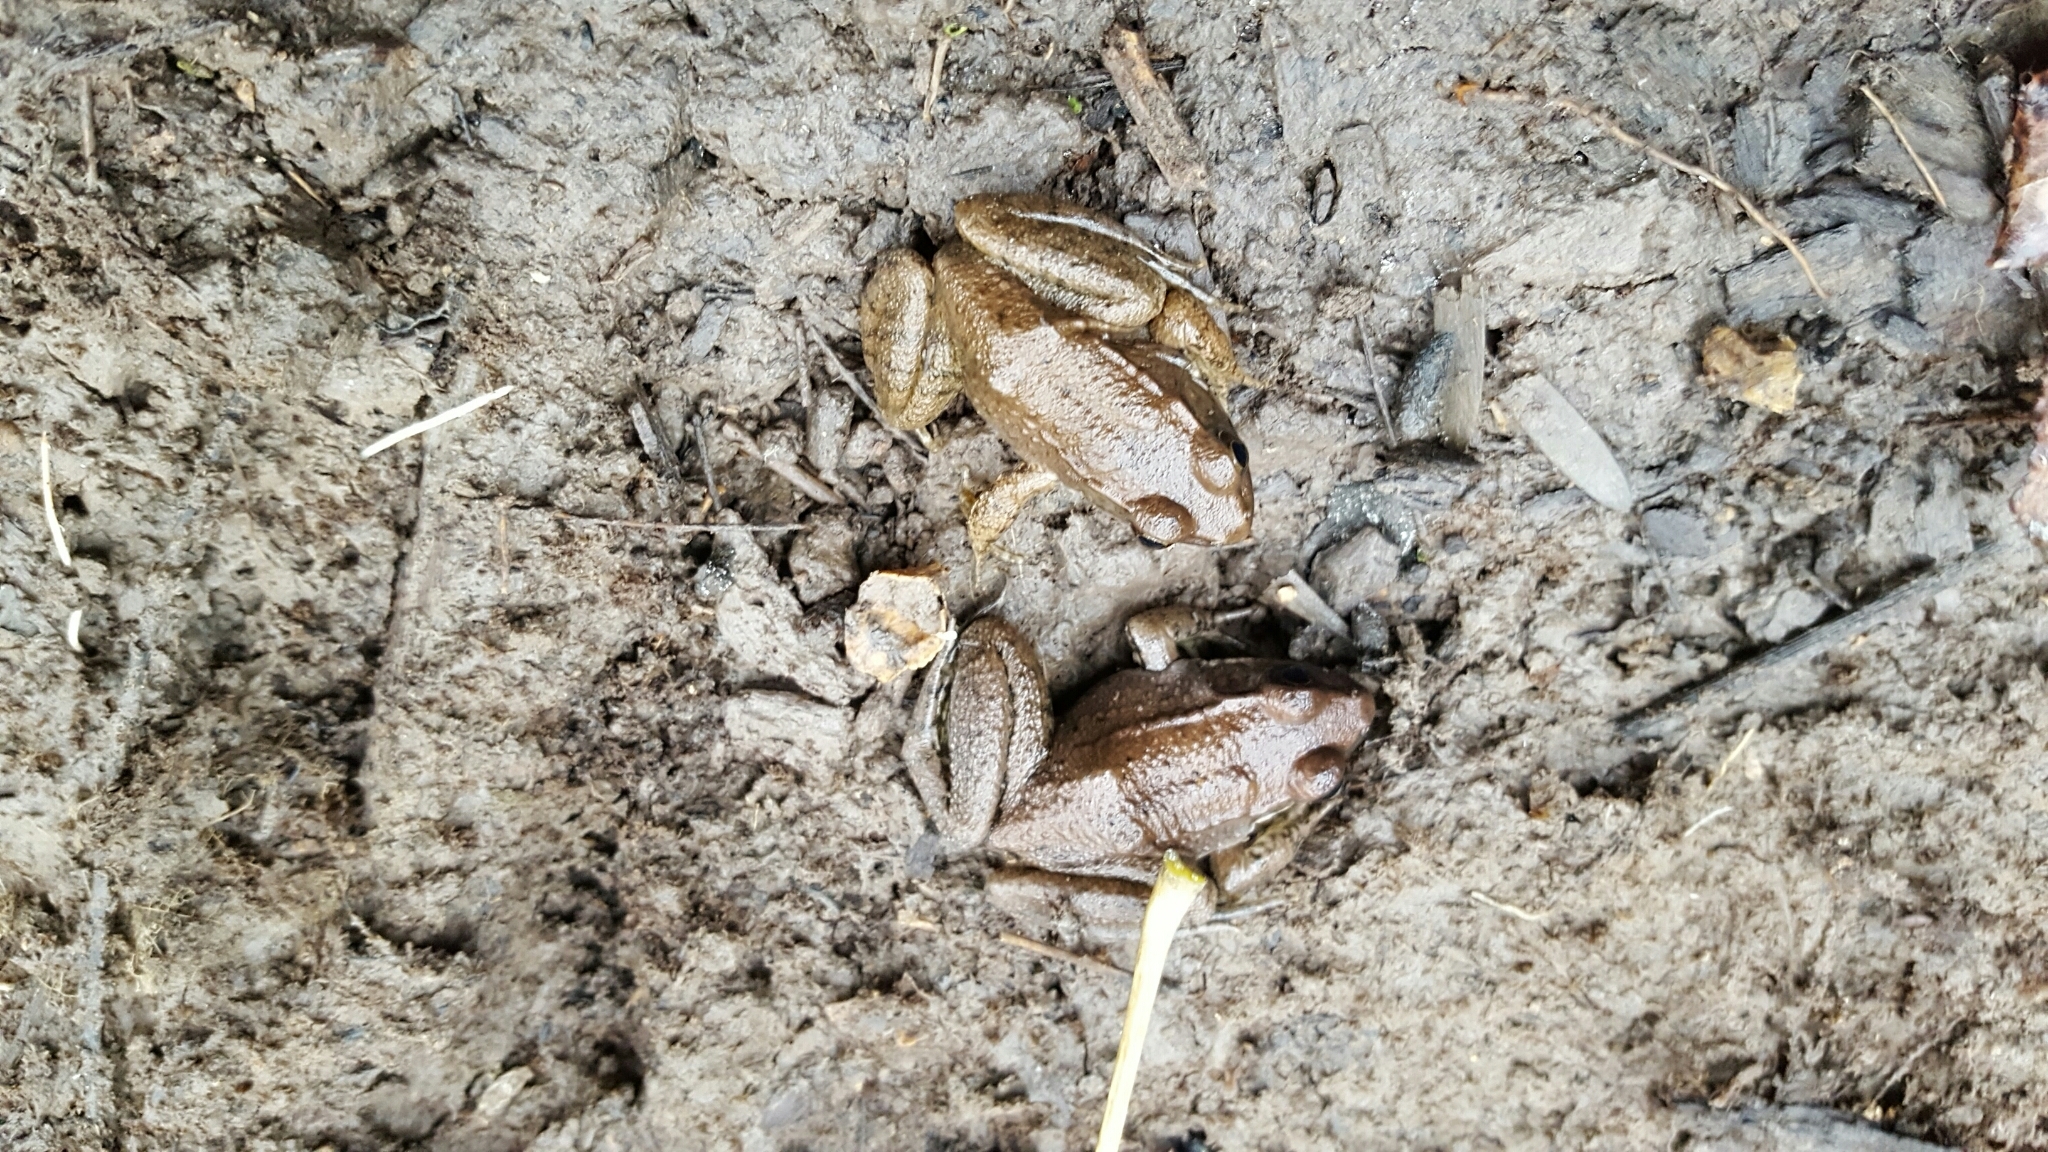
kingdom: Animalia
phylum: Chordata
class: Amphibia
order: Anura
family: Ranidae
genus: Lithobates
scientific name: Lithobates clamitans
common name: Green frog
